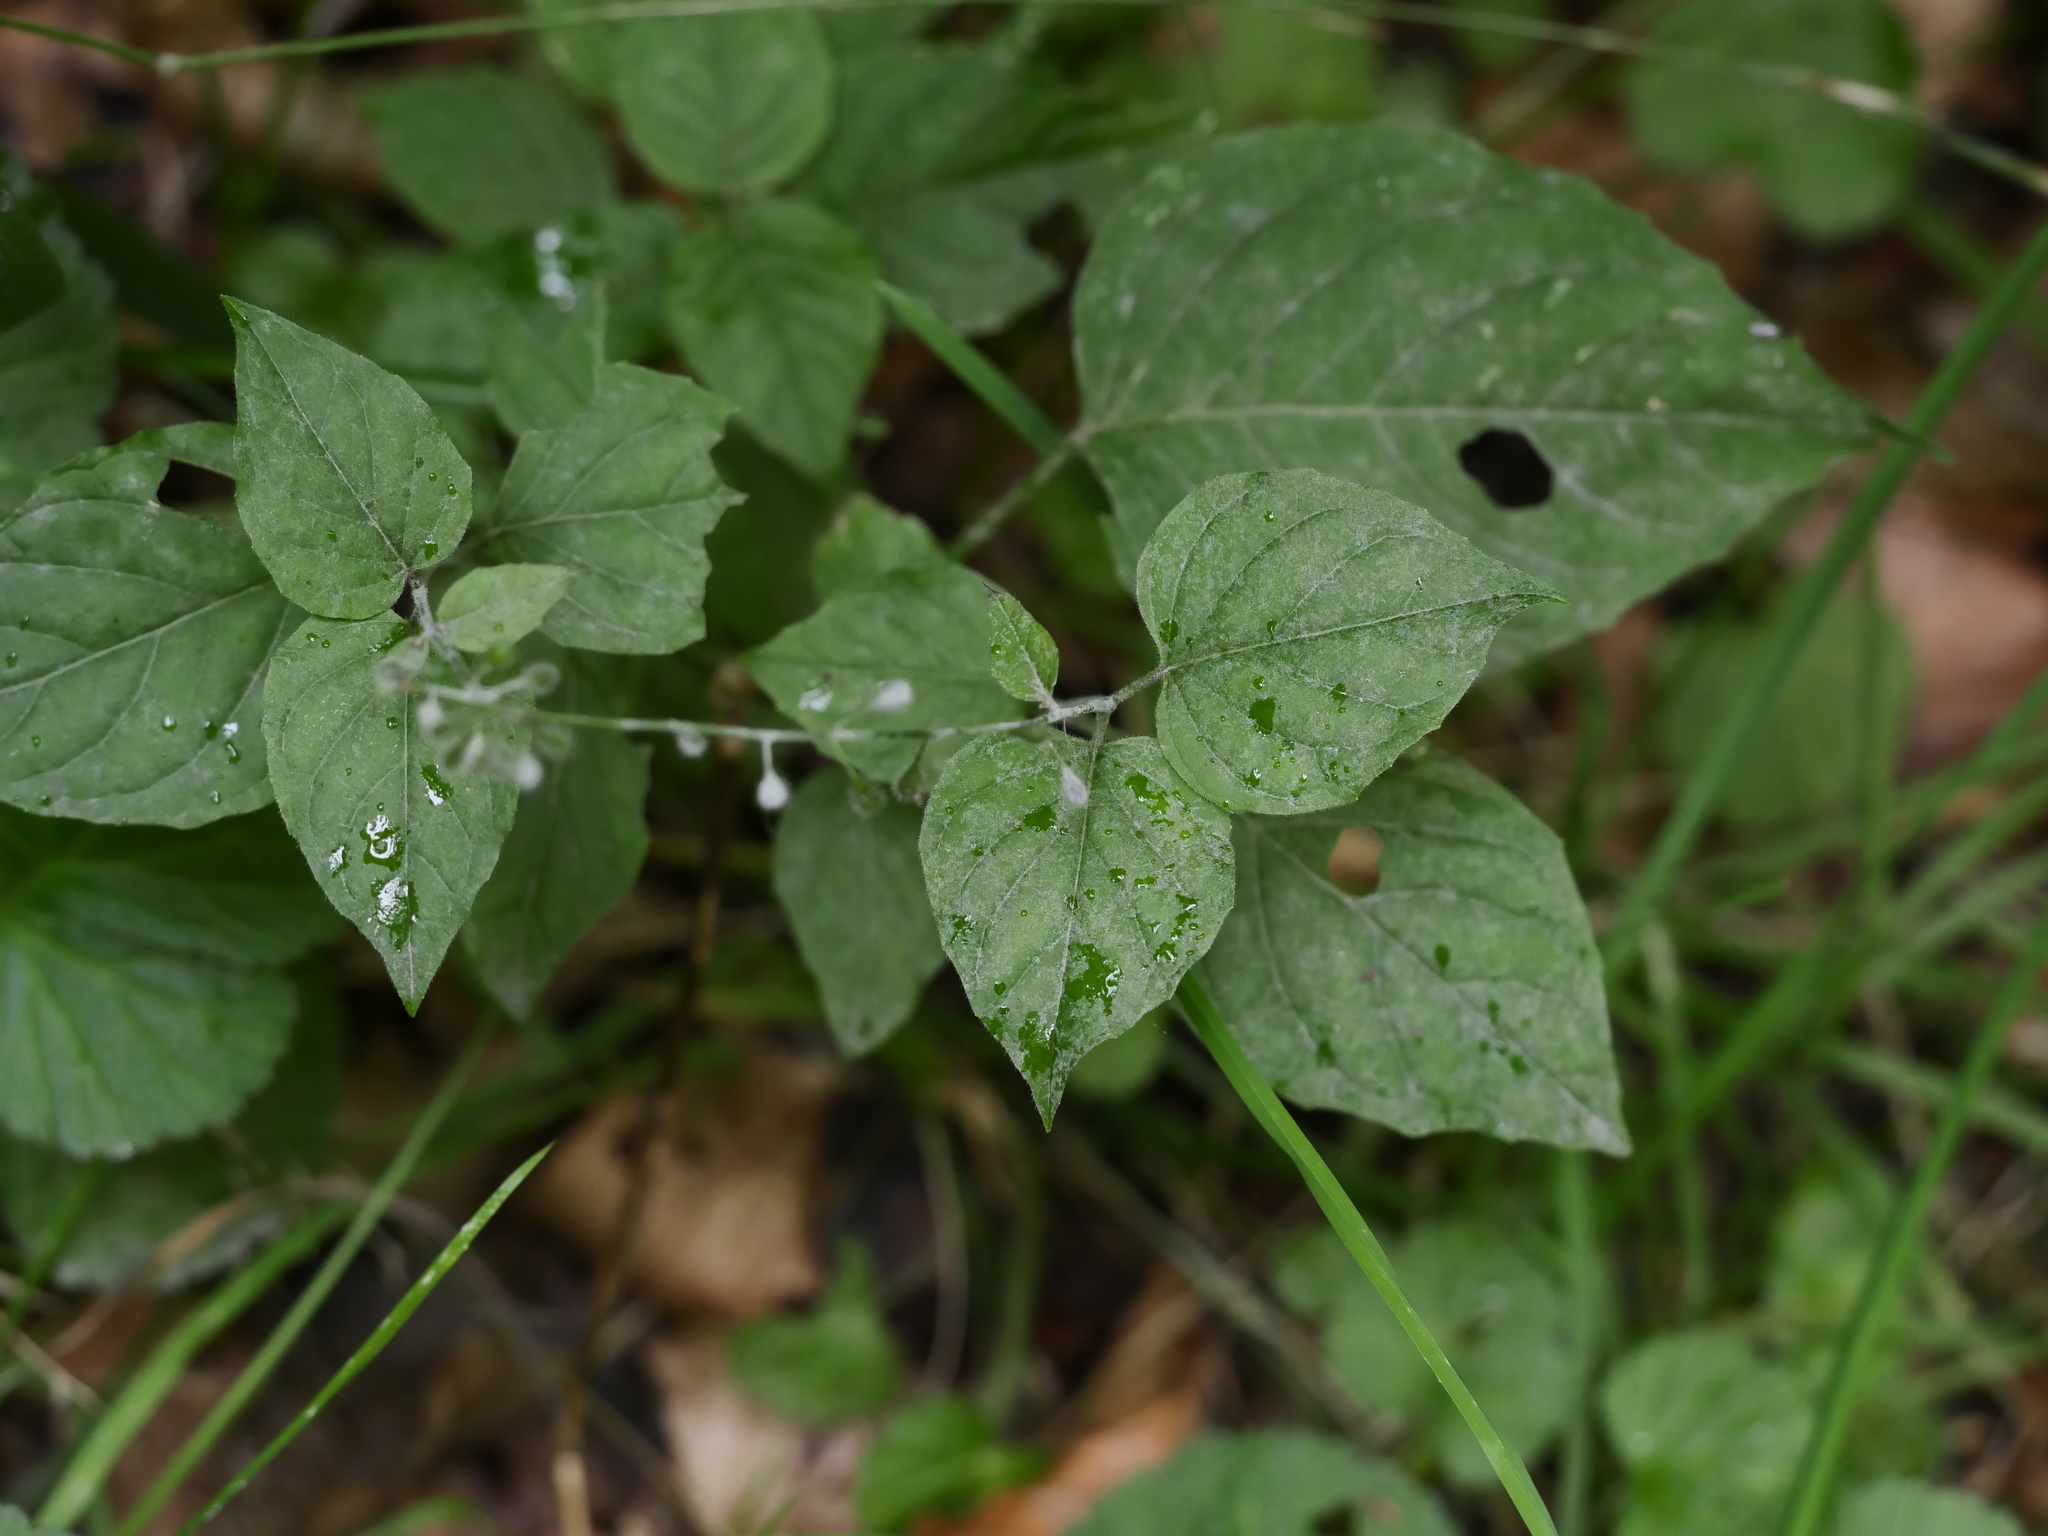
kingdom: Plantae
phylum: Tracheophyta
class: Magnoliopsida
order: Myrtales
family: Onagraceae
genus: Circaea
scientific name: Circaea lutetiana
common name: Enchanter's-nightshade
